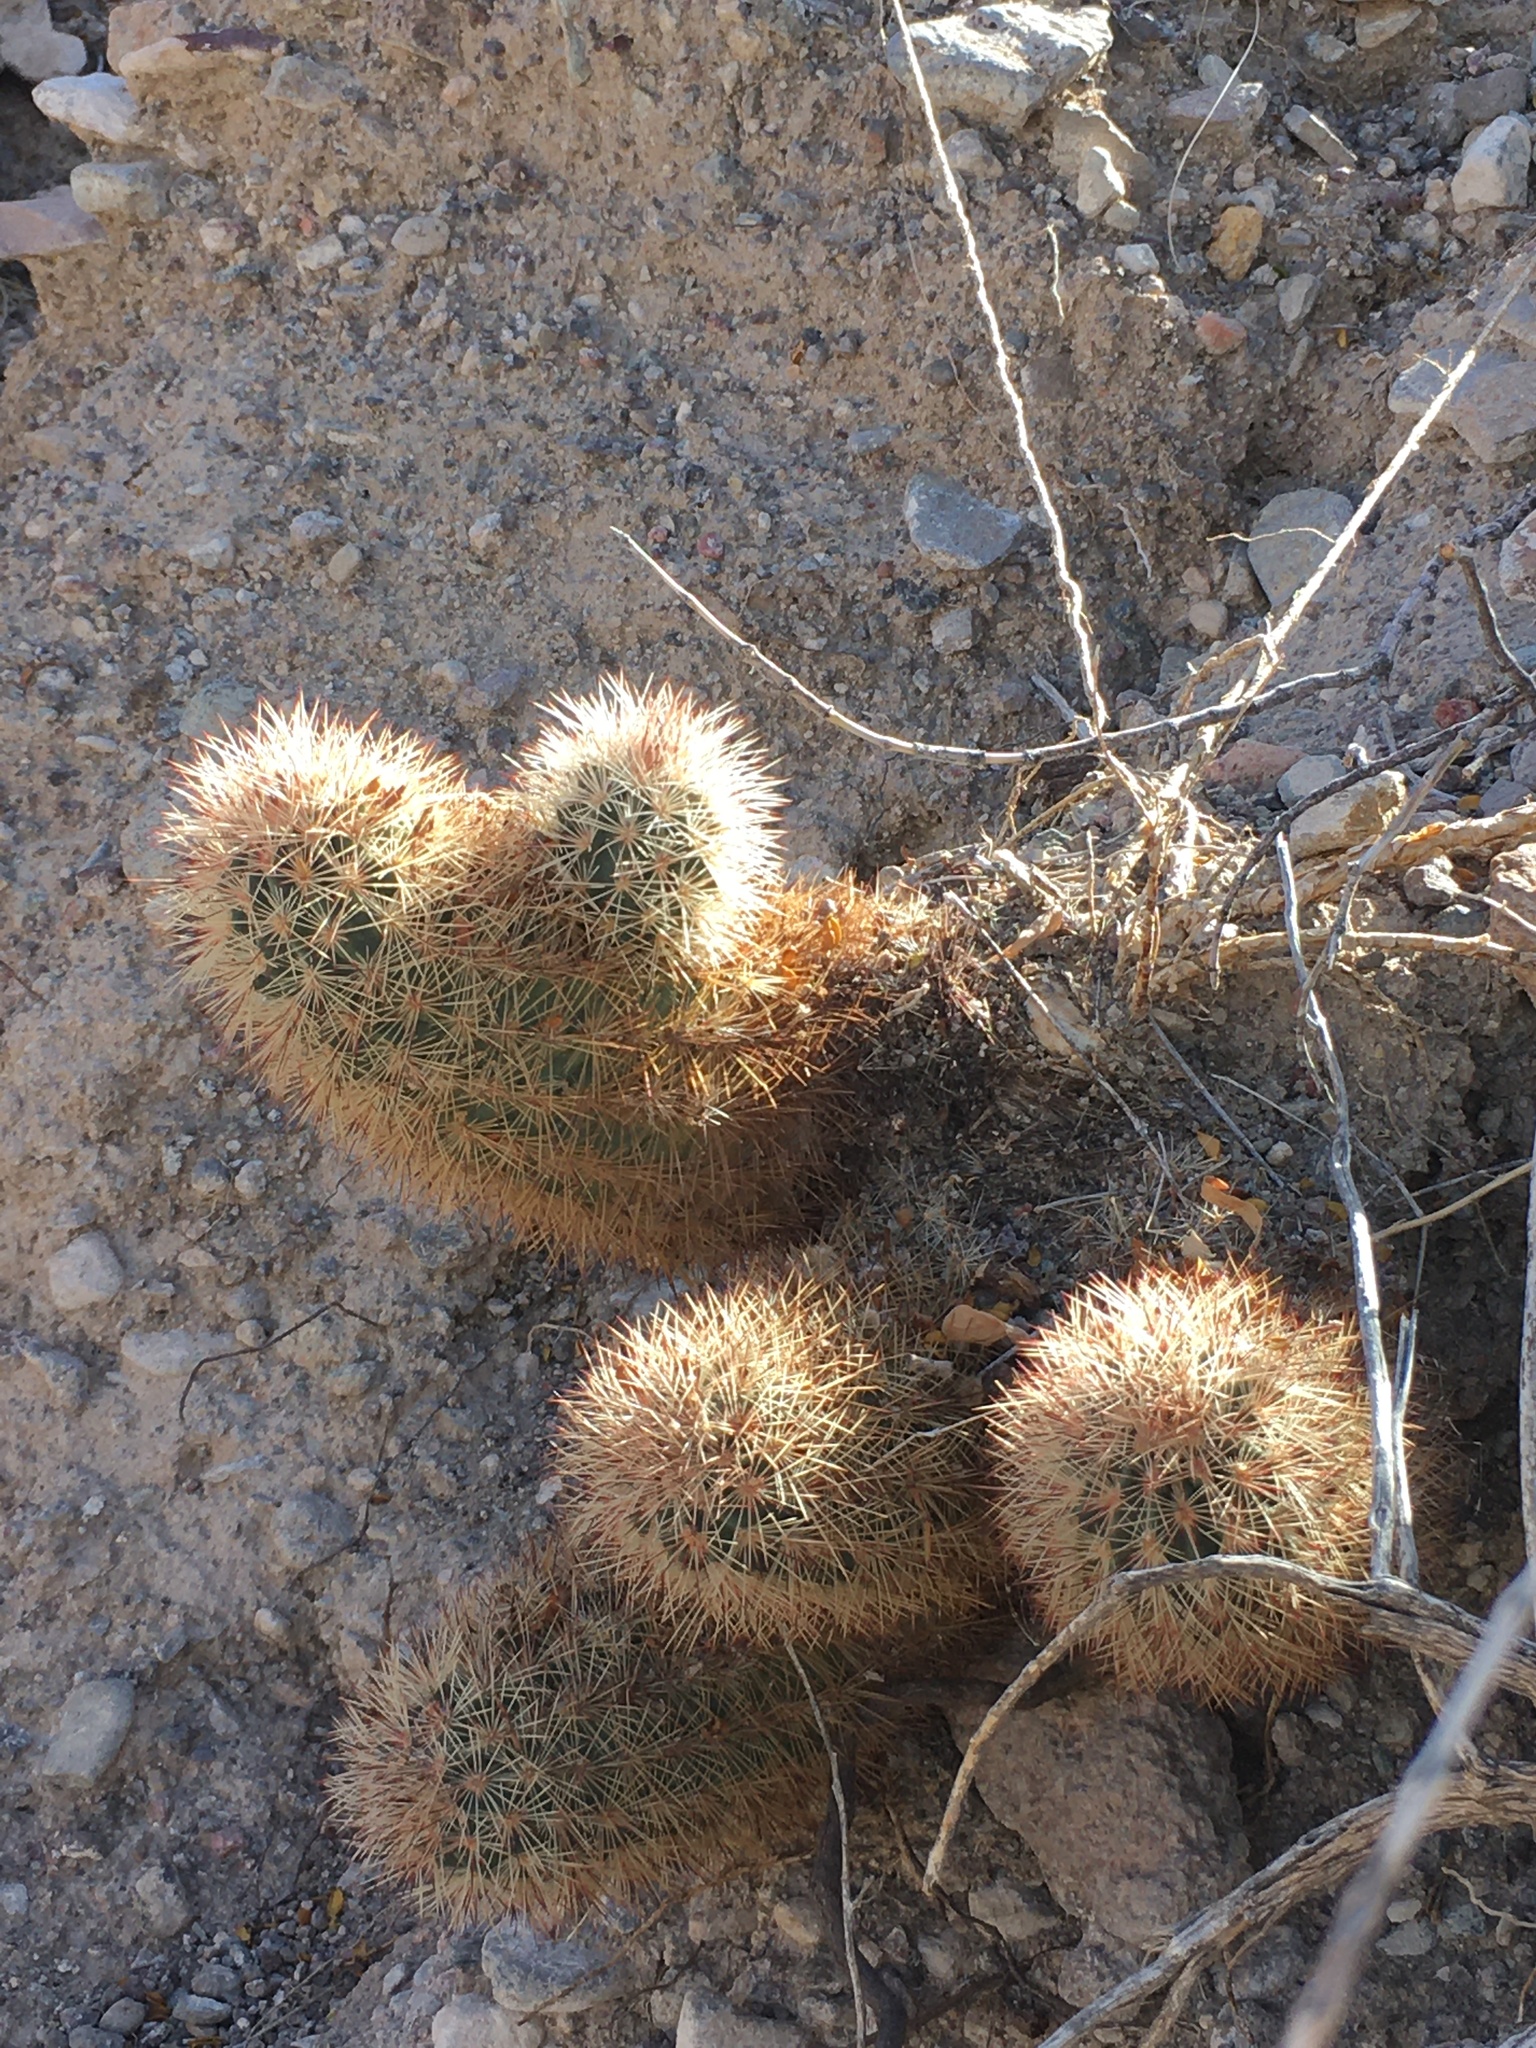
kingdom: Plantae
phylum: Tracheophyta
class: Magnoliopsida
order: Caryophyllales
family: Cactaceae
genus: Echinocereus
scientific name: Echinocereus dasyacanthus
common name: Spiny hedgehog cactus
